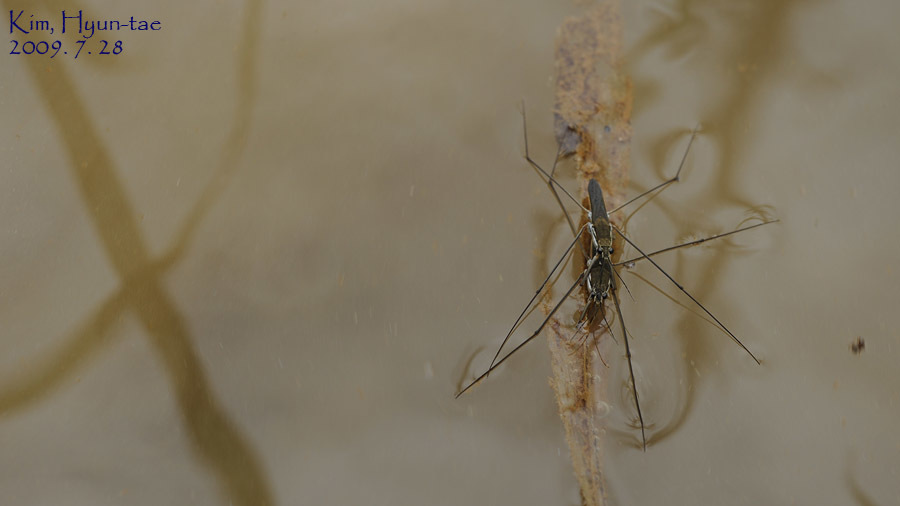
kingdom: Animalia
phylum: Arthropoda
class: Insecta
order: Hemiptera
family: Gerridae
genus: Aquarius
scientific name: Aquarius paludum
